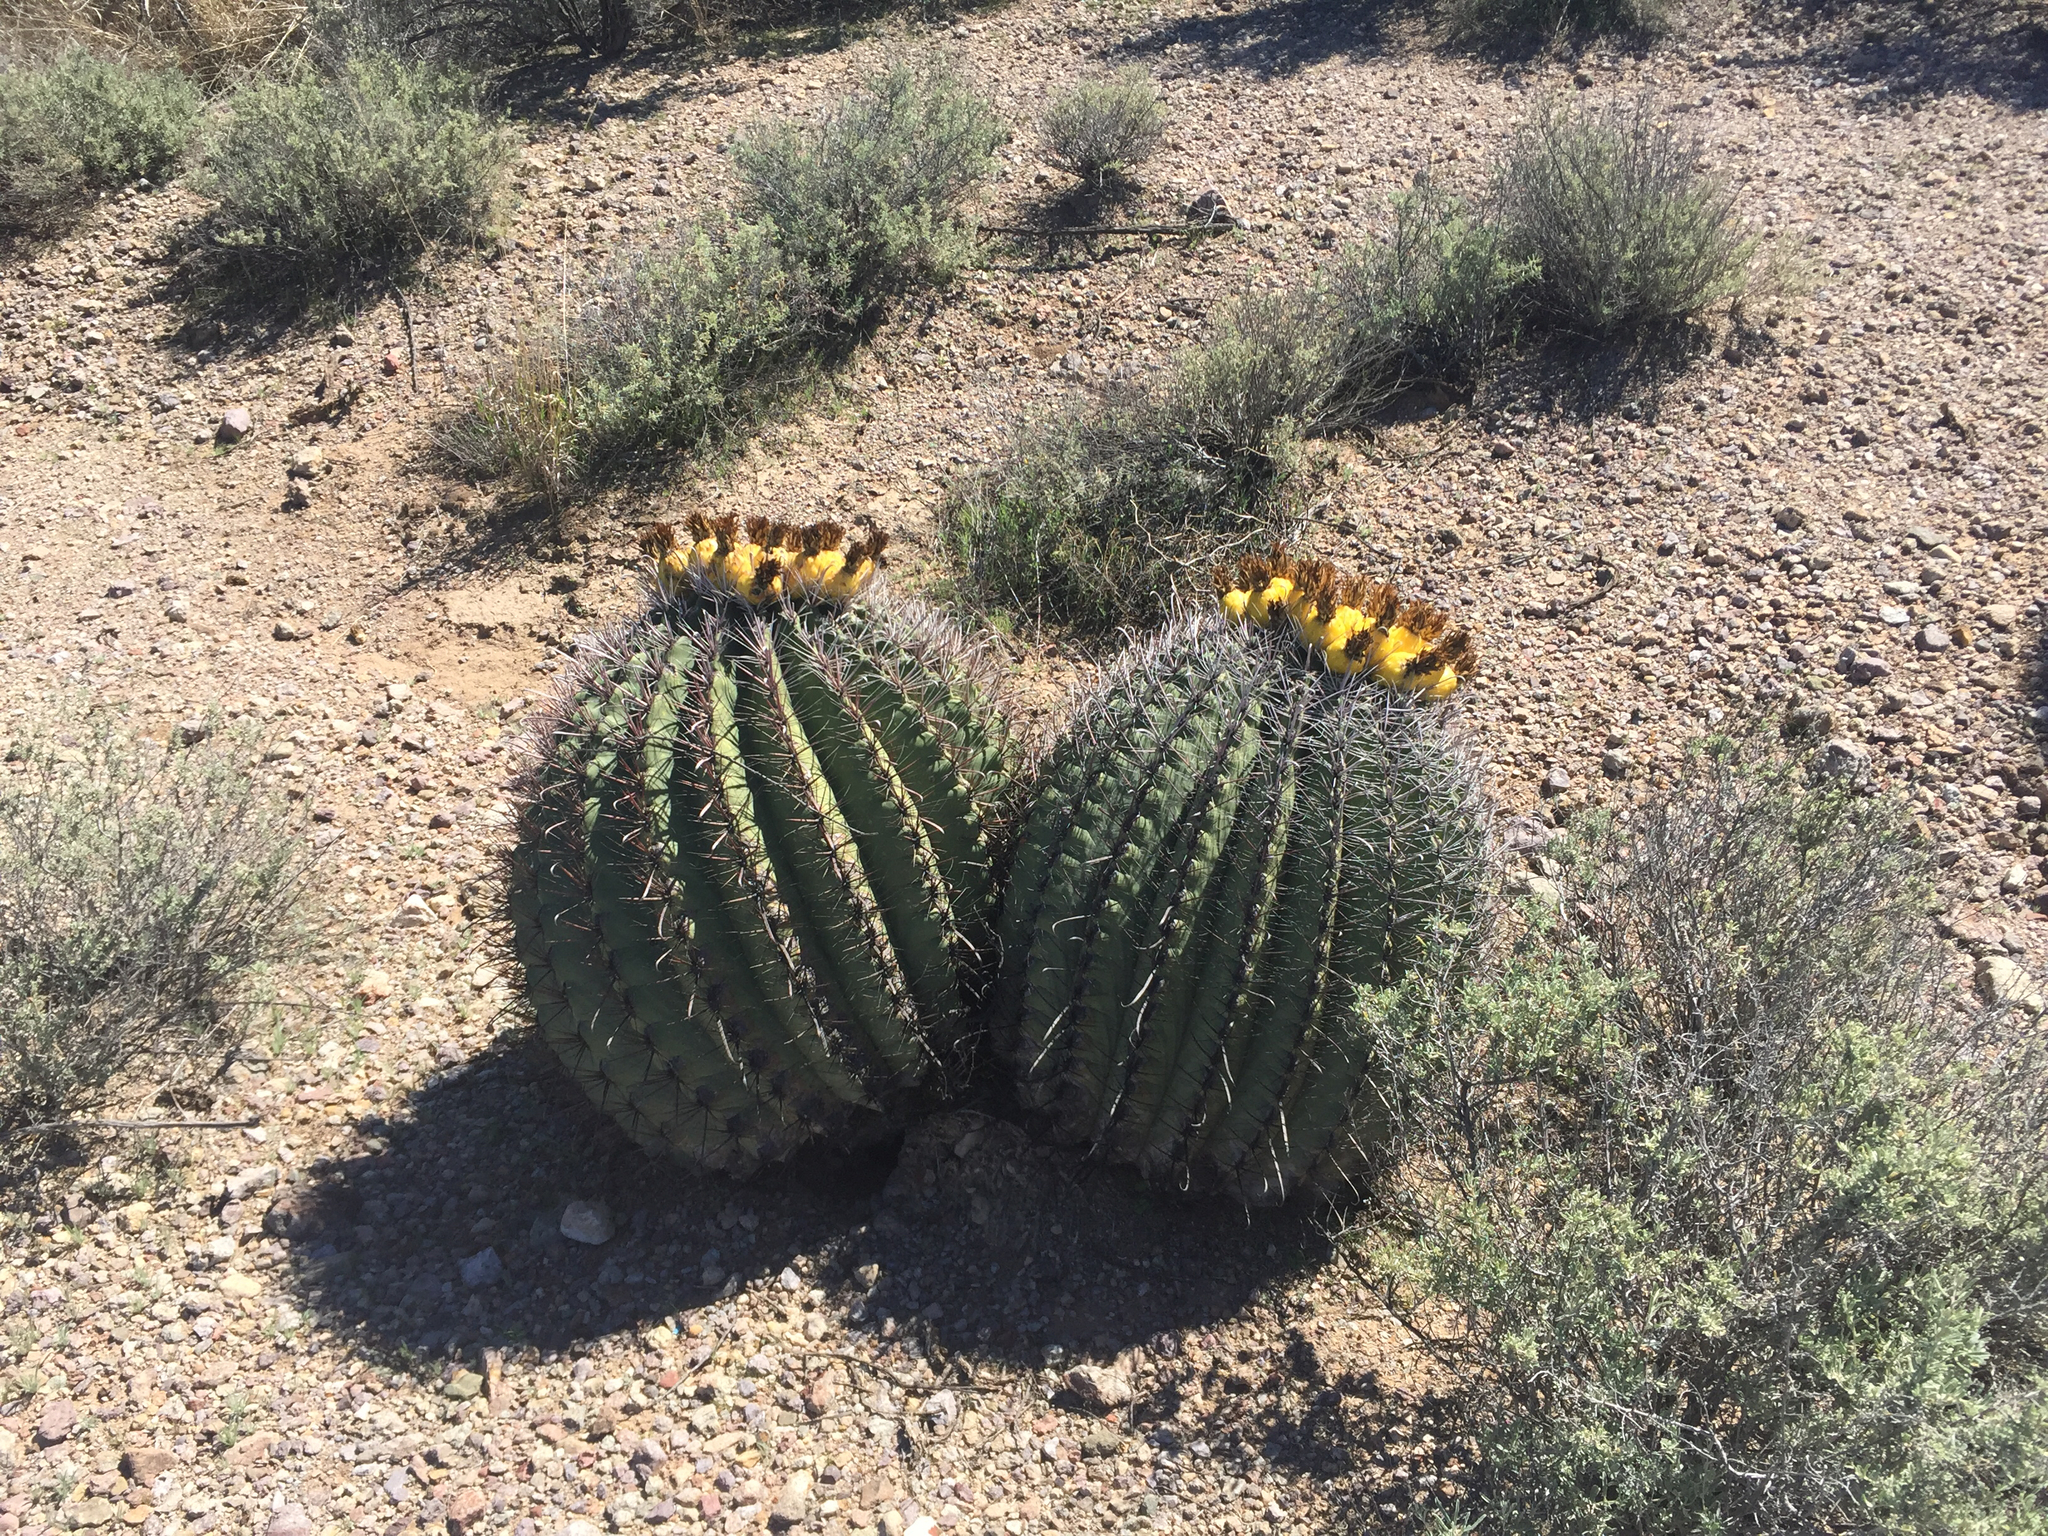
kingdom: Plantae
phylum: Tracheophyta
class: Magnoliopsida
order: Caryophyllales
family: Cactaceae
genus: Ferocactus
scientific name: Ferocactus wislizeni
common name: Candy barrel cactus
